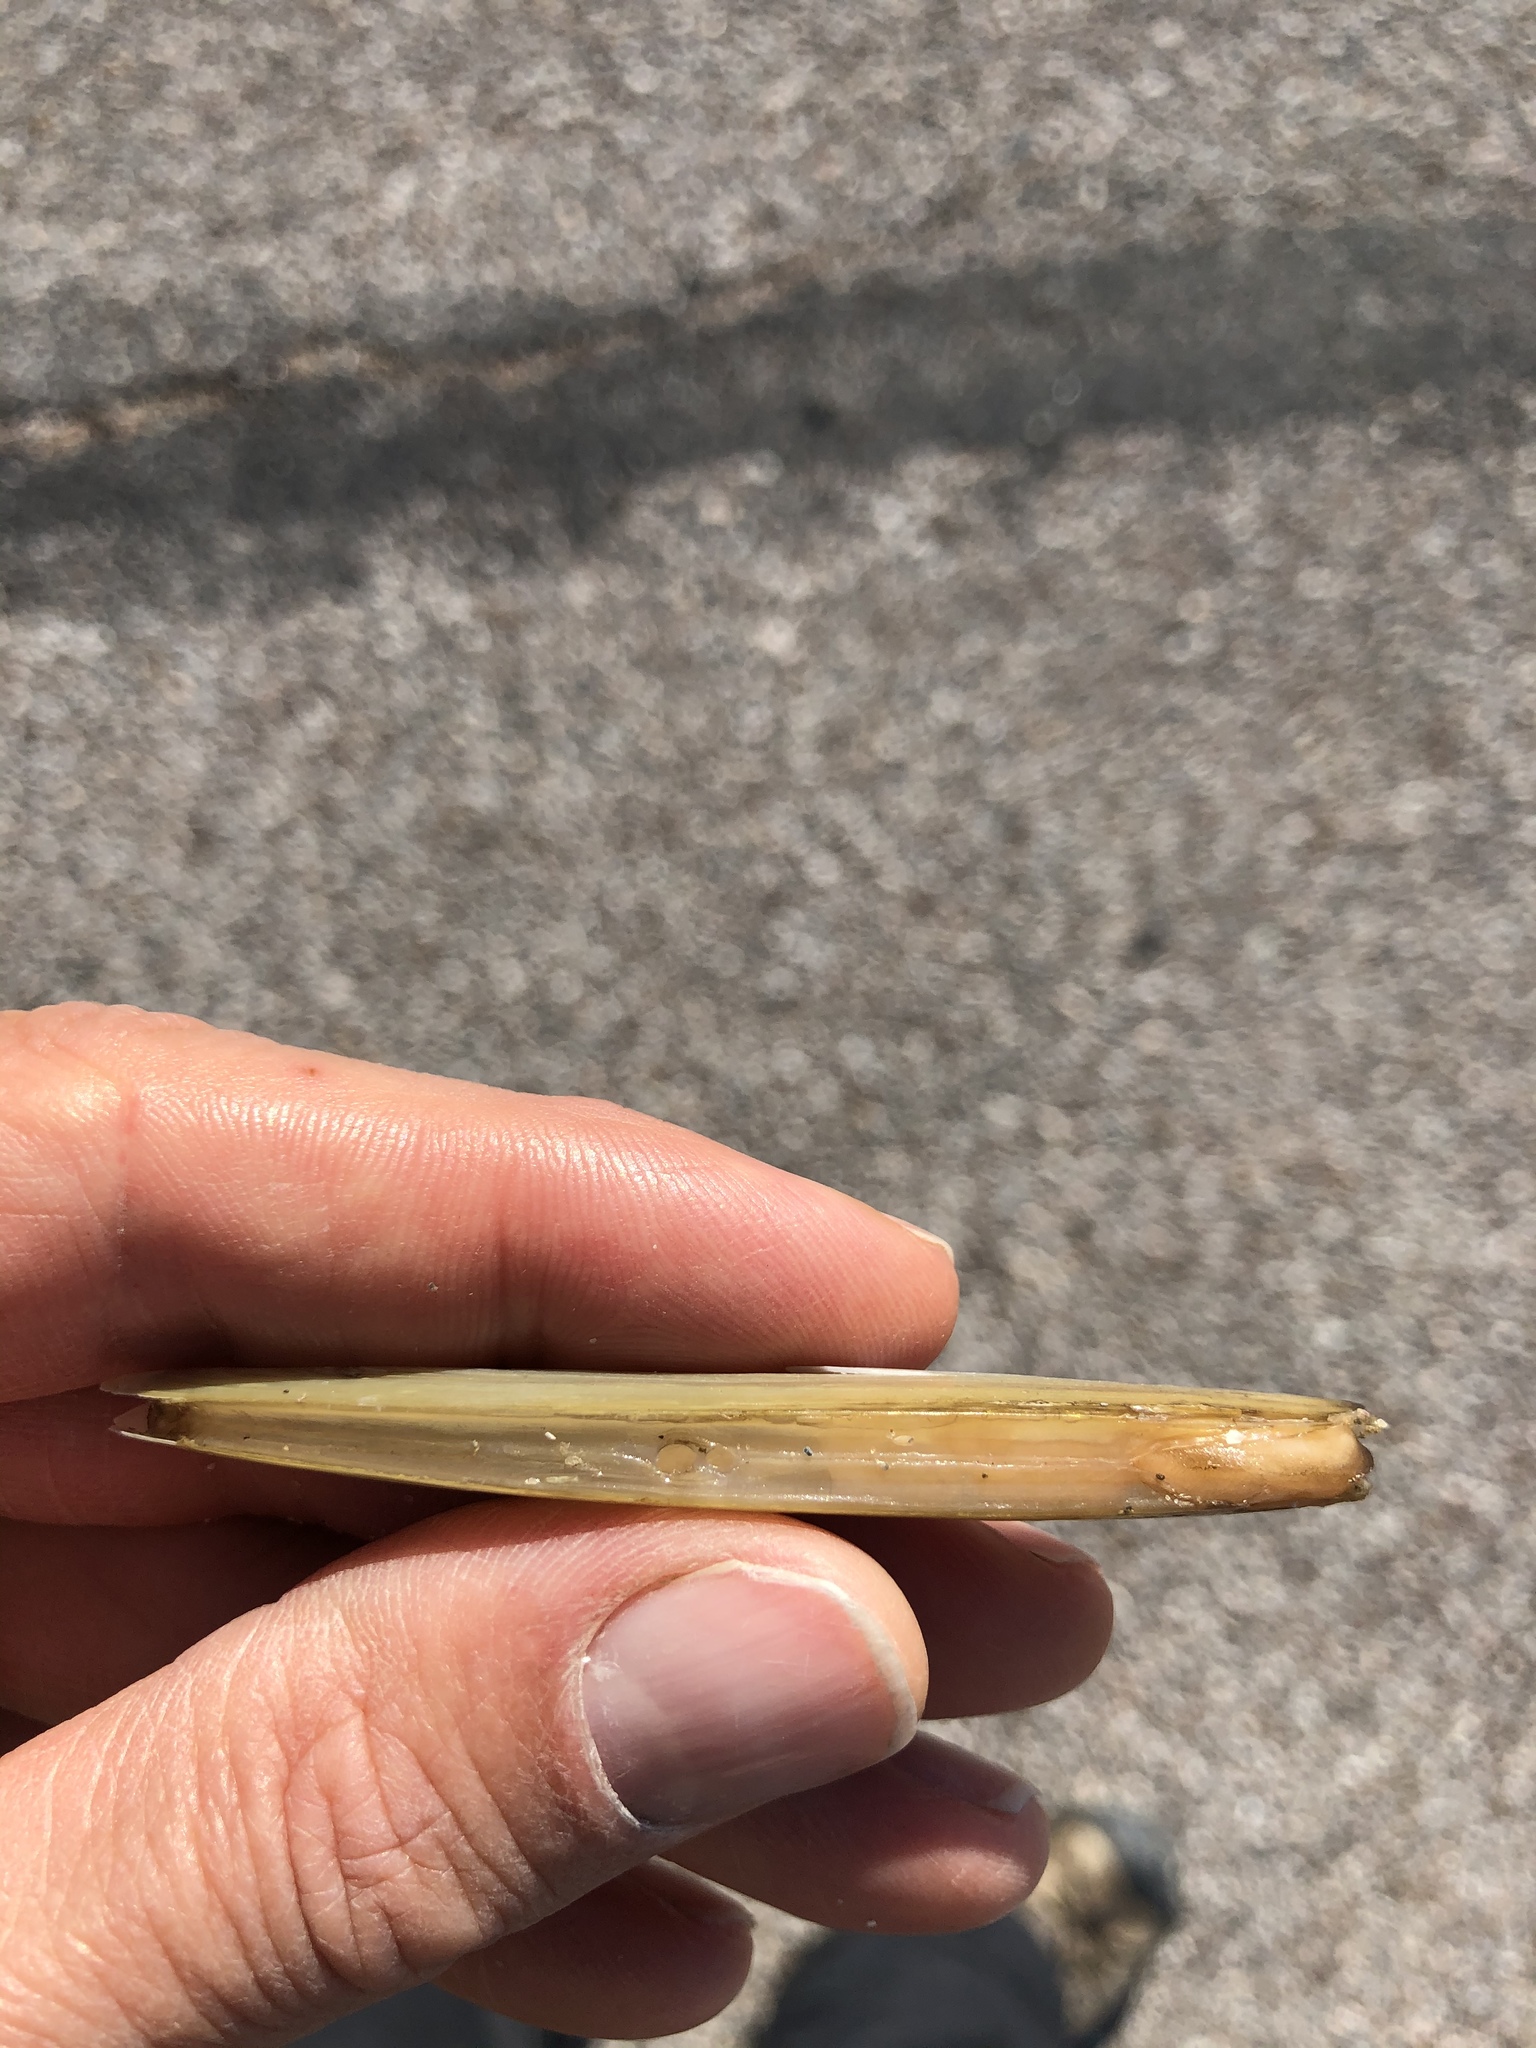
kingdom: Animalia
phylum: Mollusca
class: Bivalvia
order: Adapedonta
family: Pharidae
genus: Ensis
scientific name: Ensis megistus
